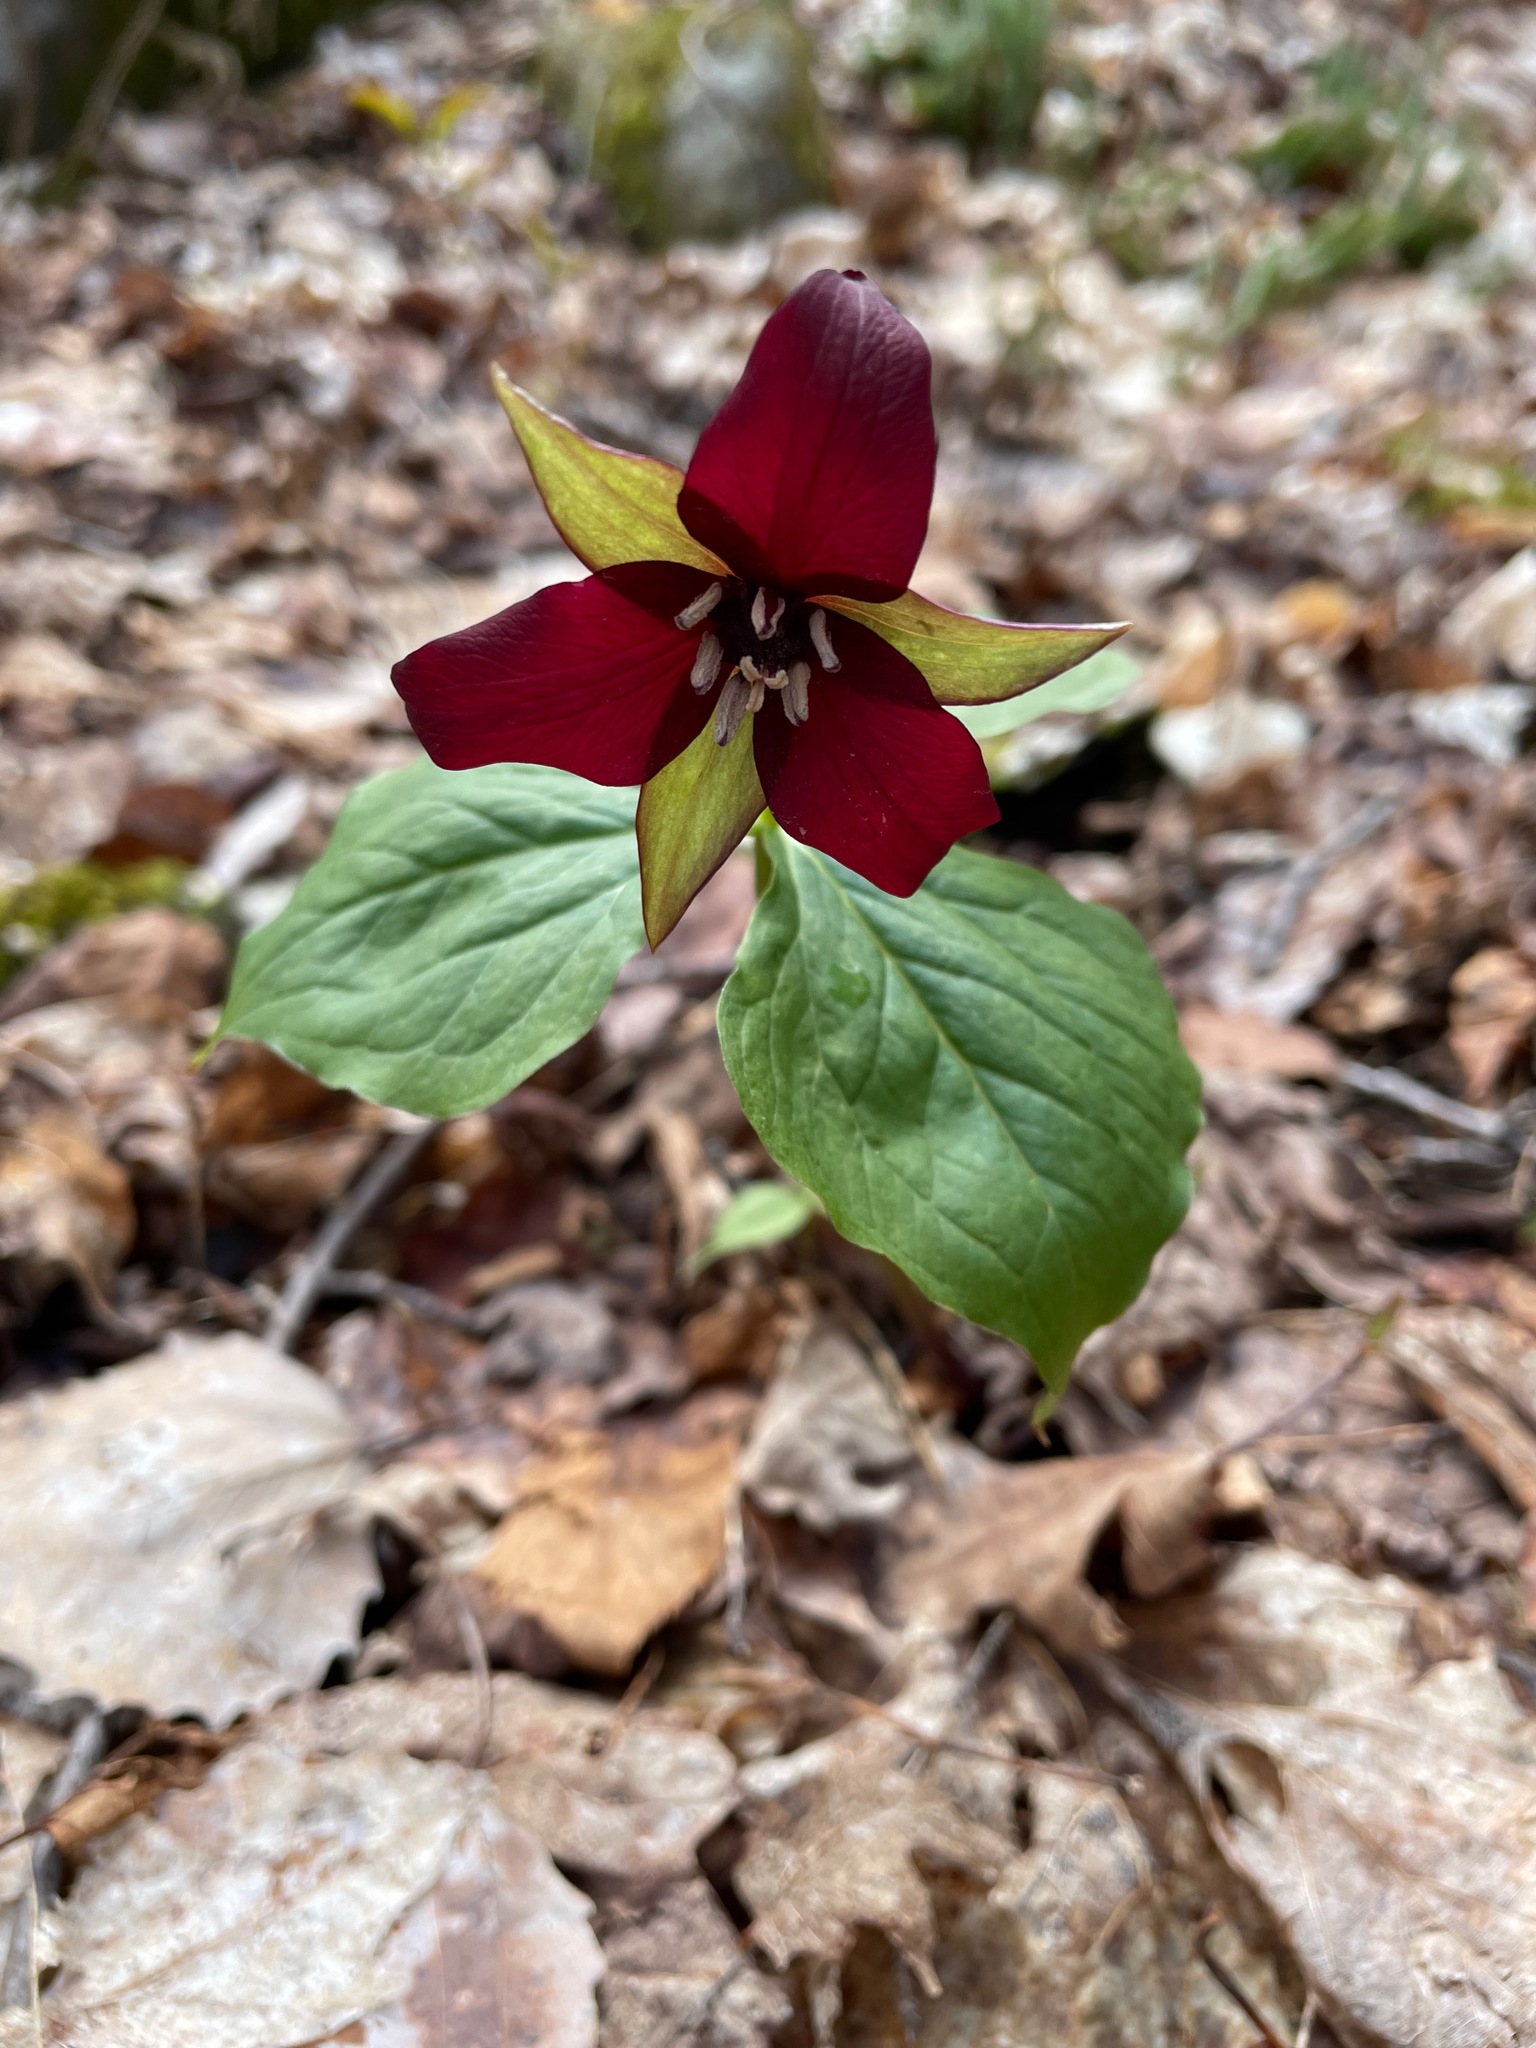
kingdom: Plantae
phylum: Tracheophyta
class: Liliopsida
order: Liliales
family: Melanthiaceae
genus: Trillium
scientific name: Trillium erectum
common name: Purple trillium
